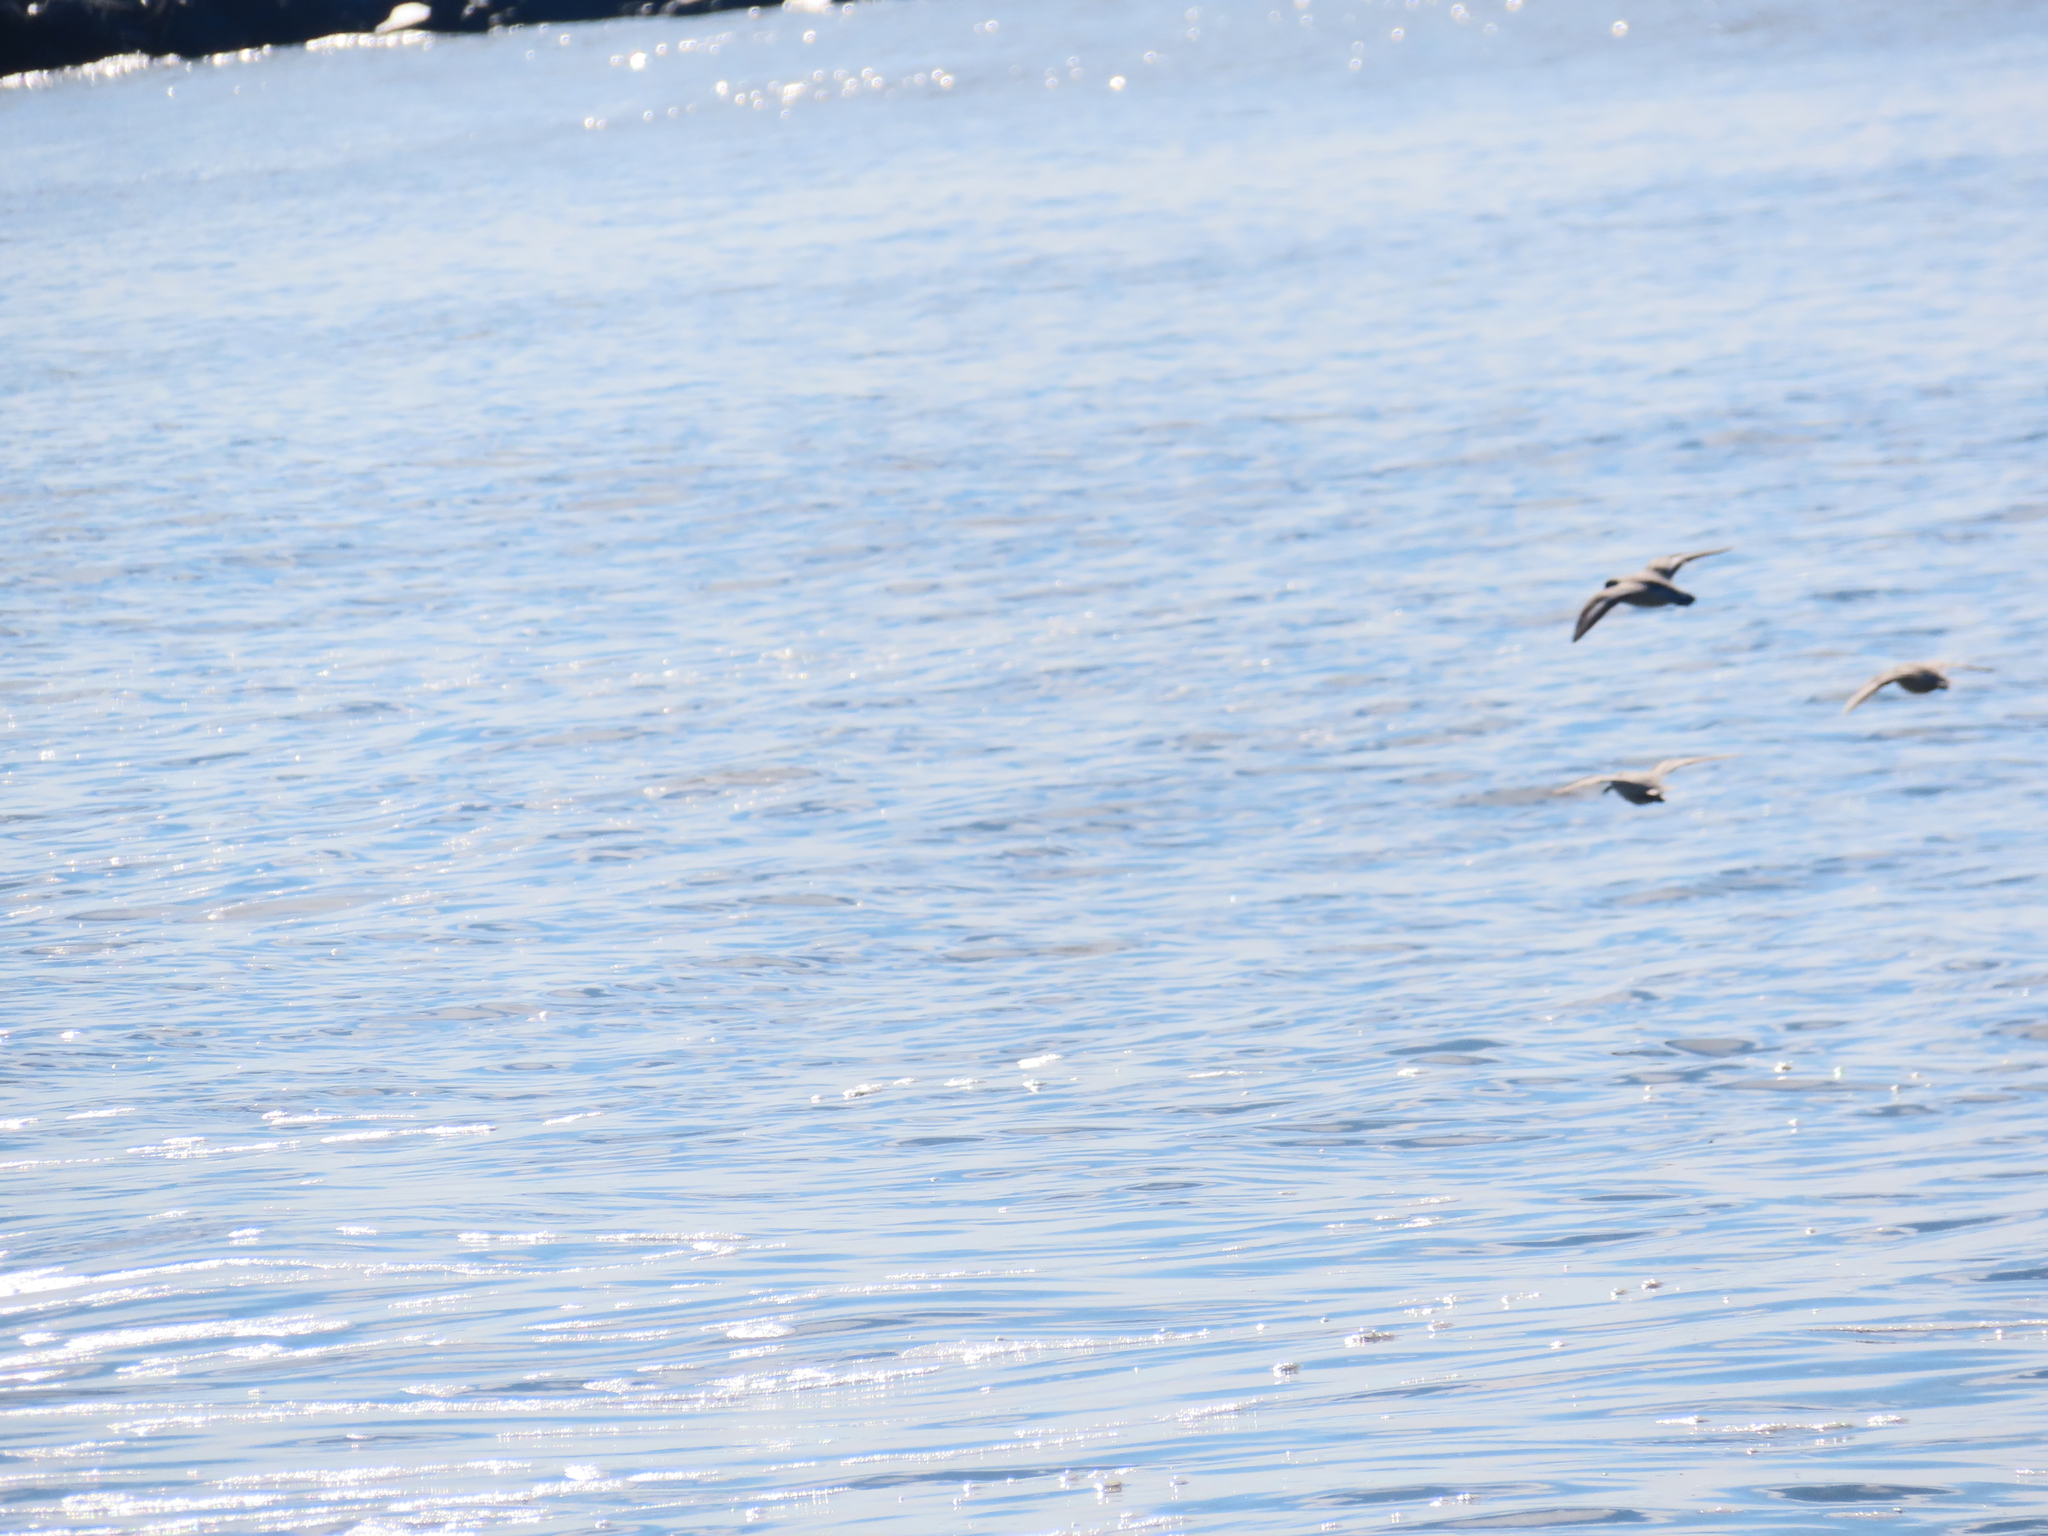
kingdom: Animalia
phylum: Chordata
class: Aves
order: Charadriiformes
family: Scolopacidae
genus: Calidris
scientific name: Calidris alba
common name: Sanderling
